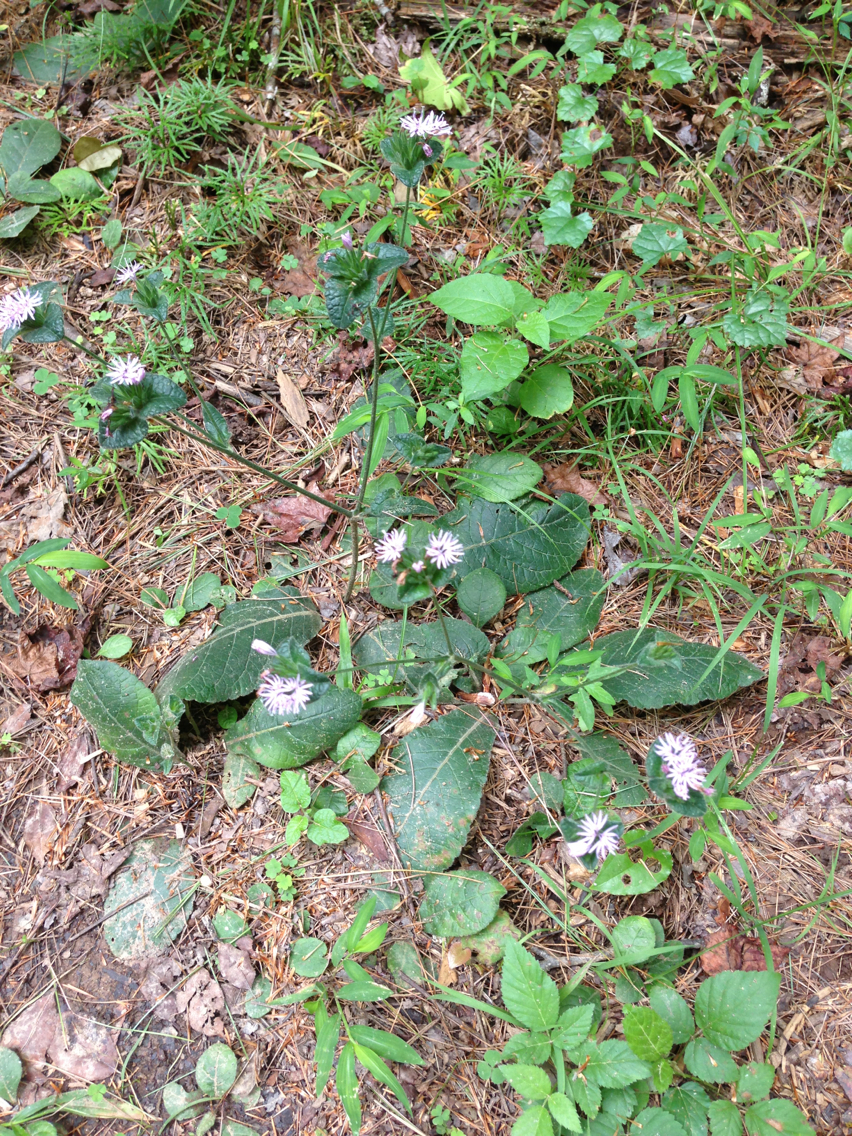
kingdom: Plantae
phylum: Tracheophyta
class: Magnoliopsida
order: Asterales
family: Asteraceae
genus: Elephantopus
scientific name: Elephantopus carolinianus
